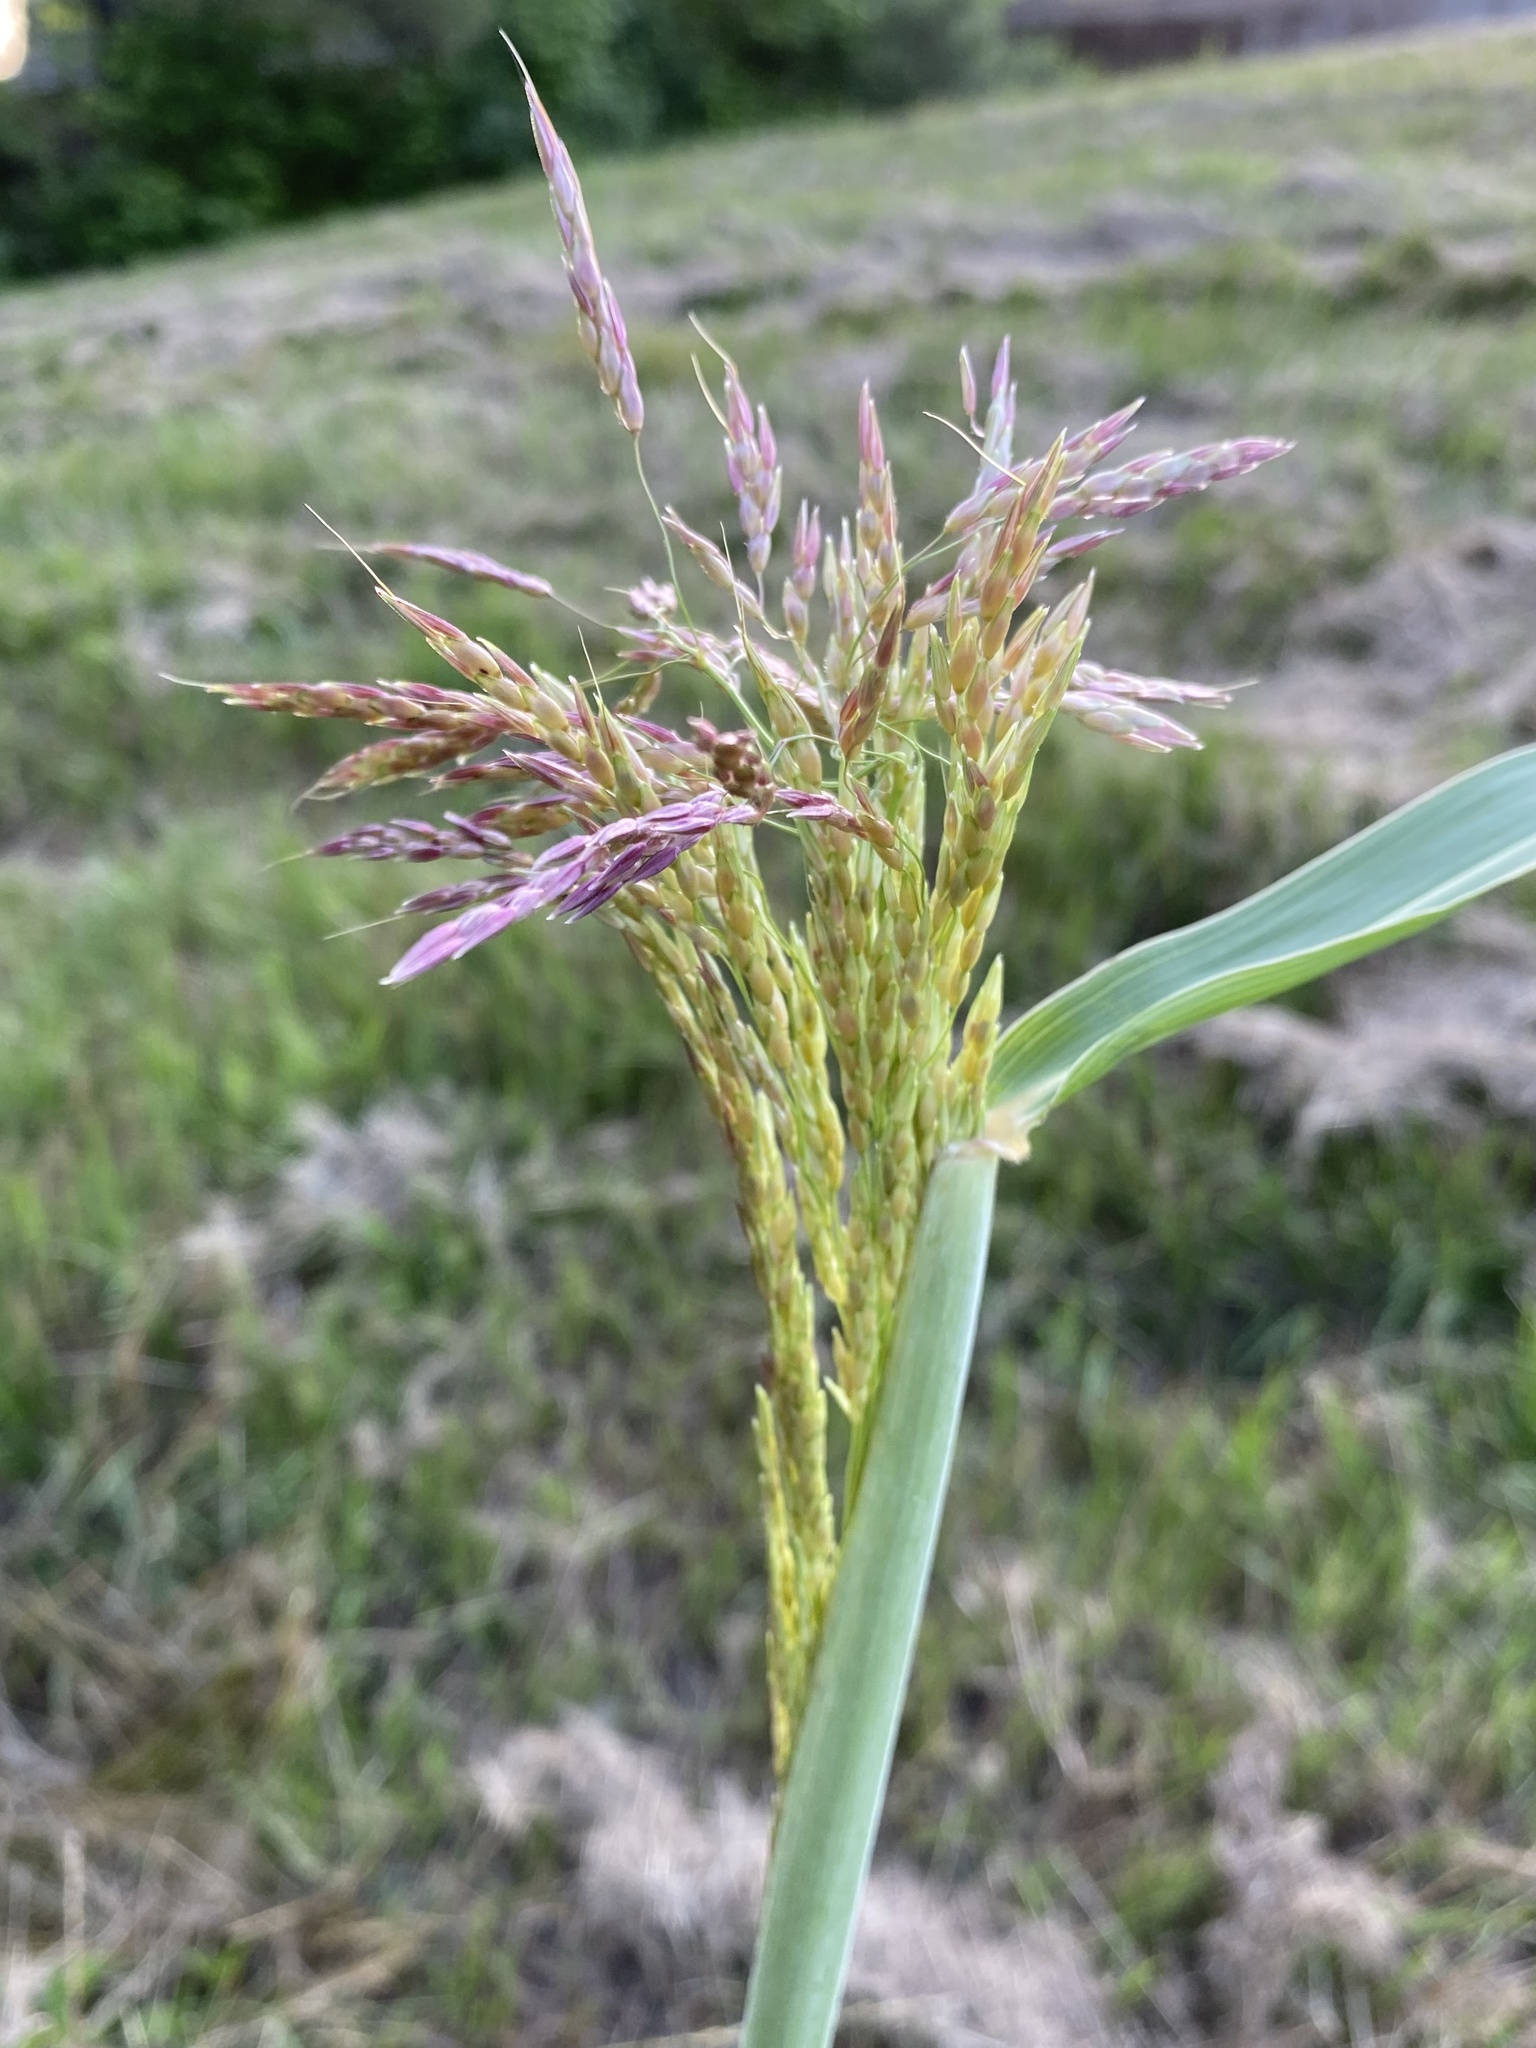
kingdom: Plantae
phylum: Tracheophyta
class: Liliopsida
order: Poales
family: Poaceae
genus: Sorghum
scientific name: Sorghum halepense
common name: Johnson-grass
